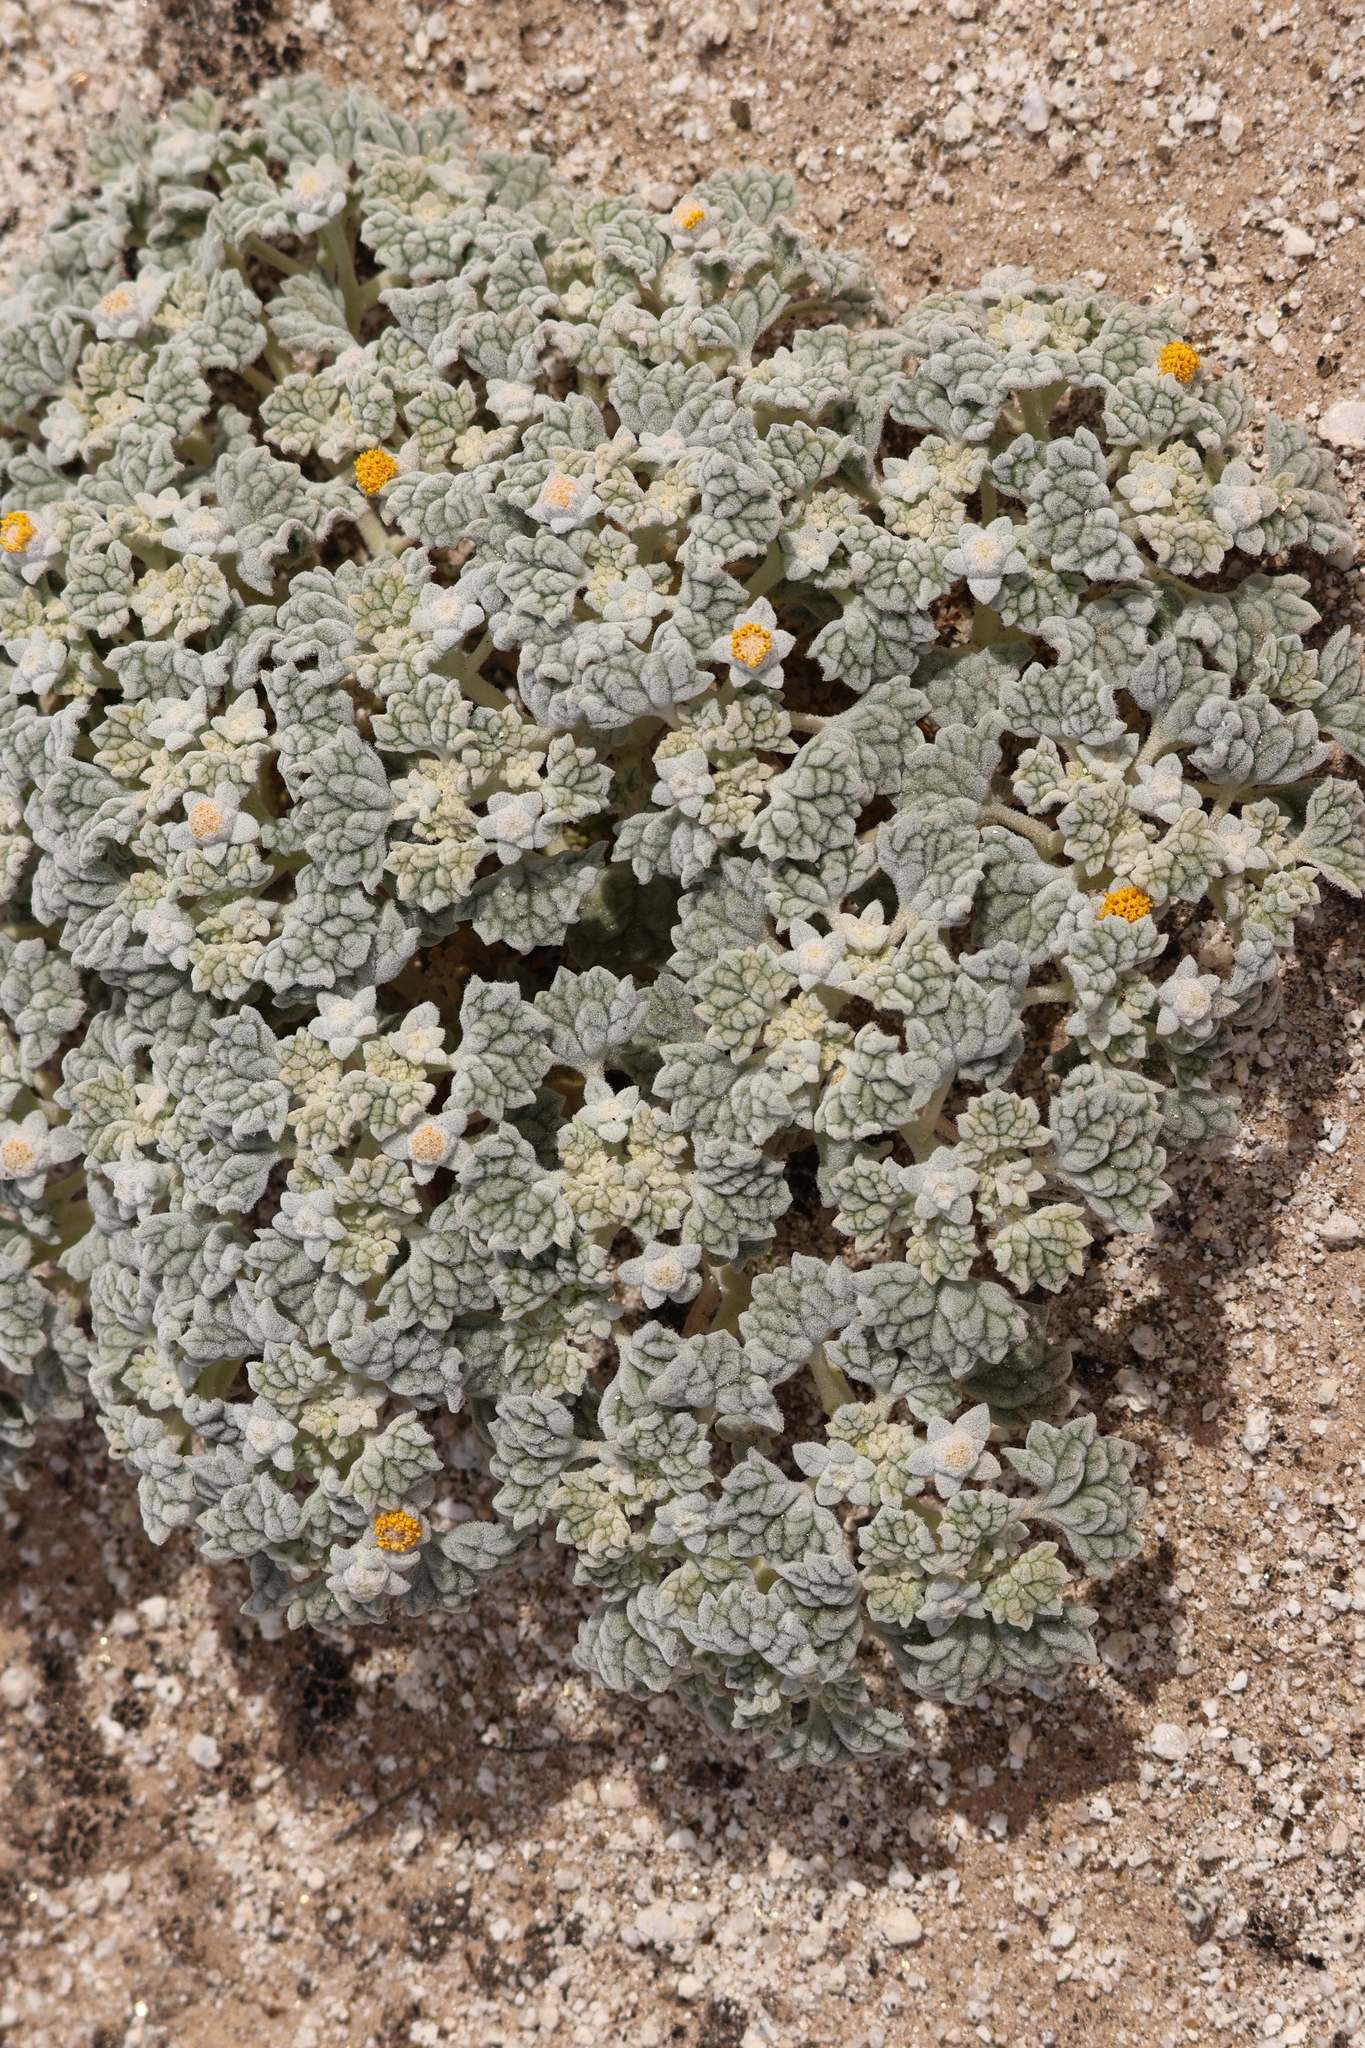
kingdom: Plantae
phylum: Tracheophyta
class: Magnoliopsida
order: Asterales
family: Asteraceae
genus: Psathyrotes
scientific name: Psathyrotes ramosissima
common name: Turtleback
